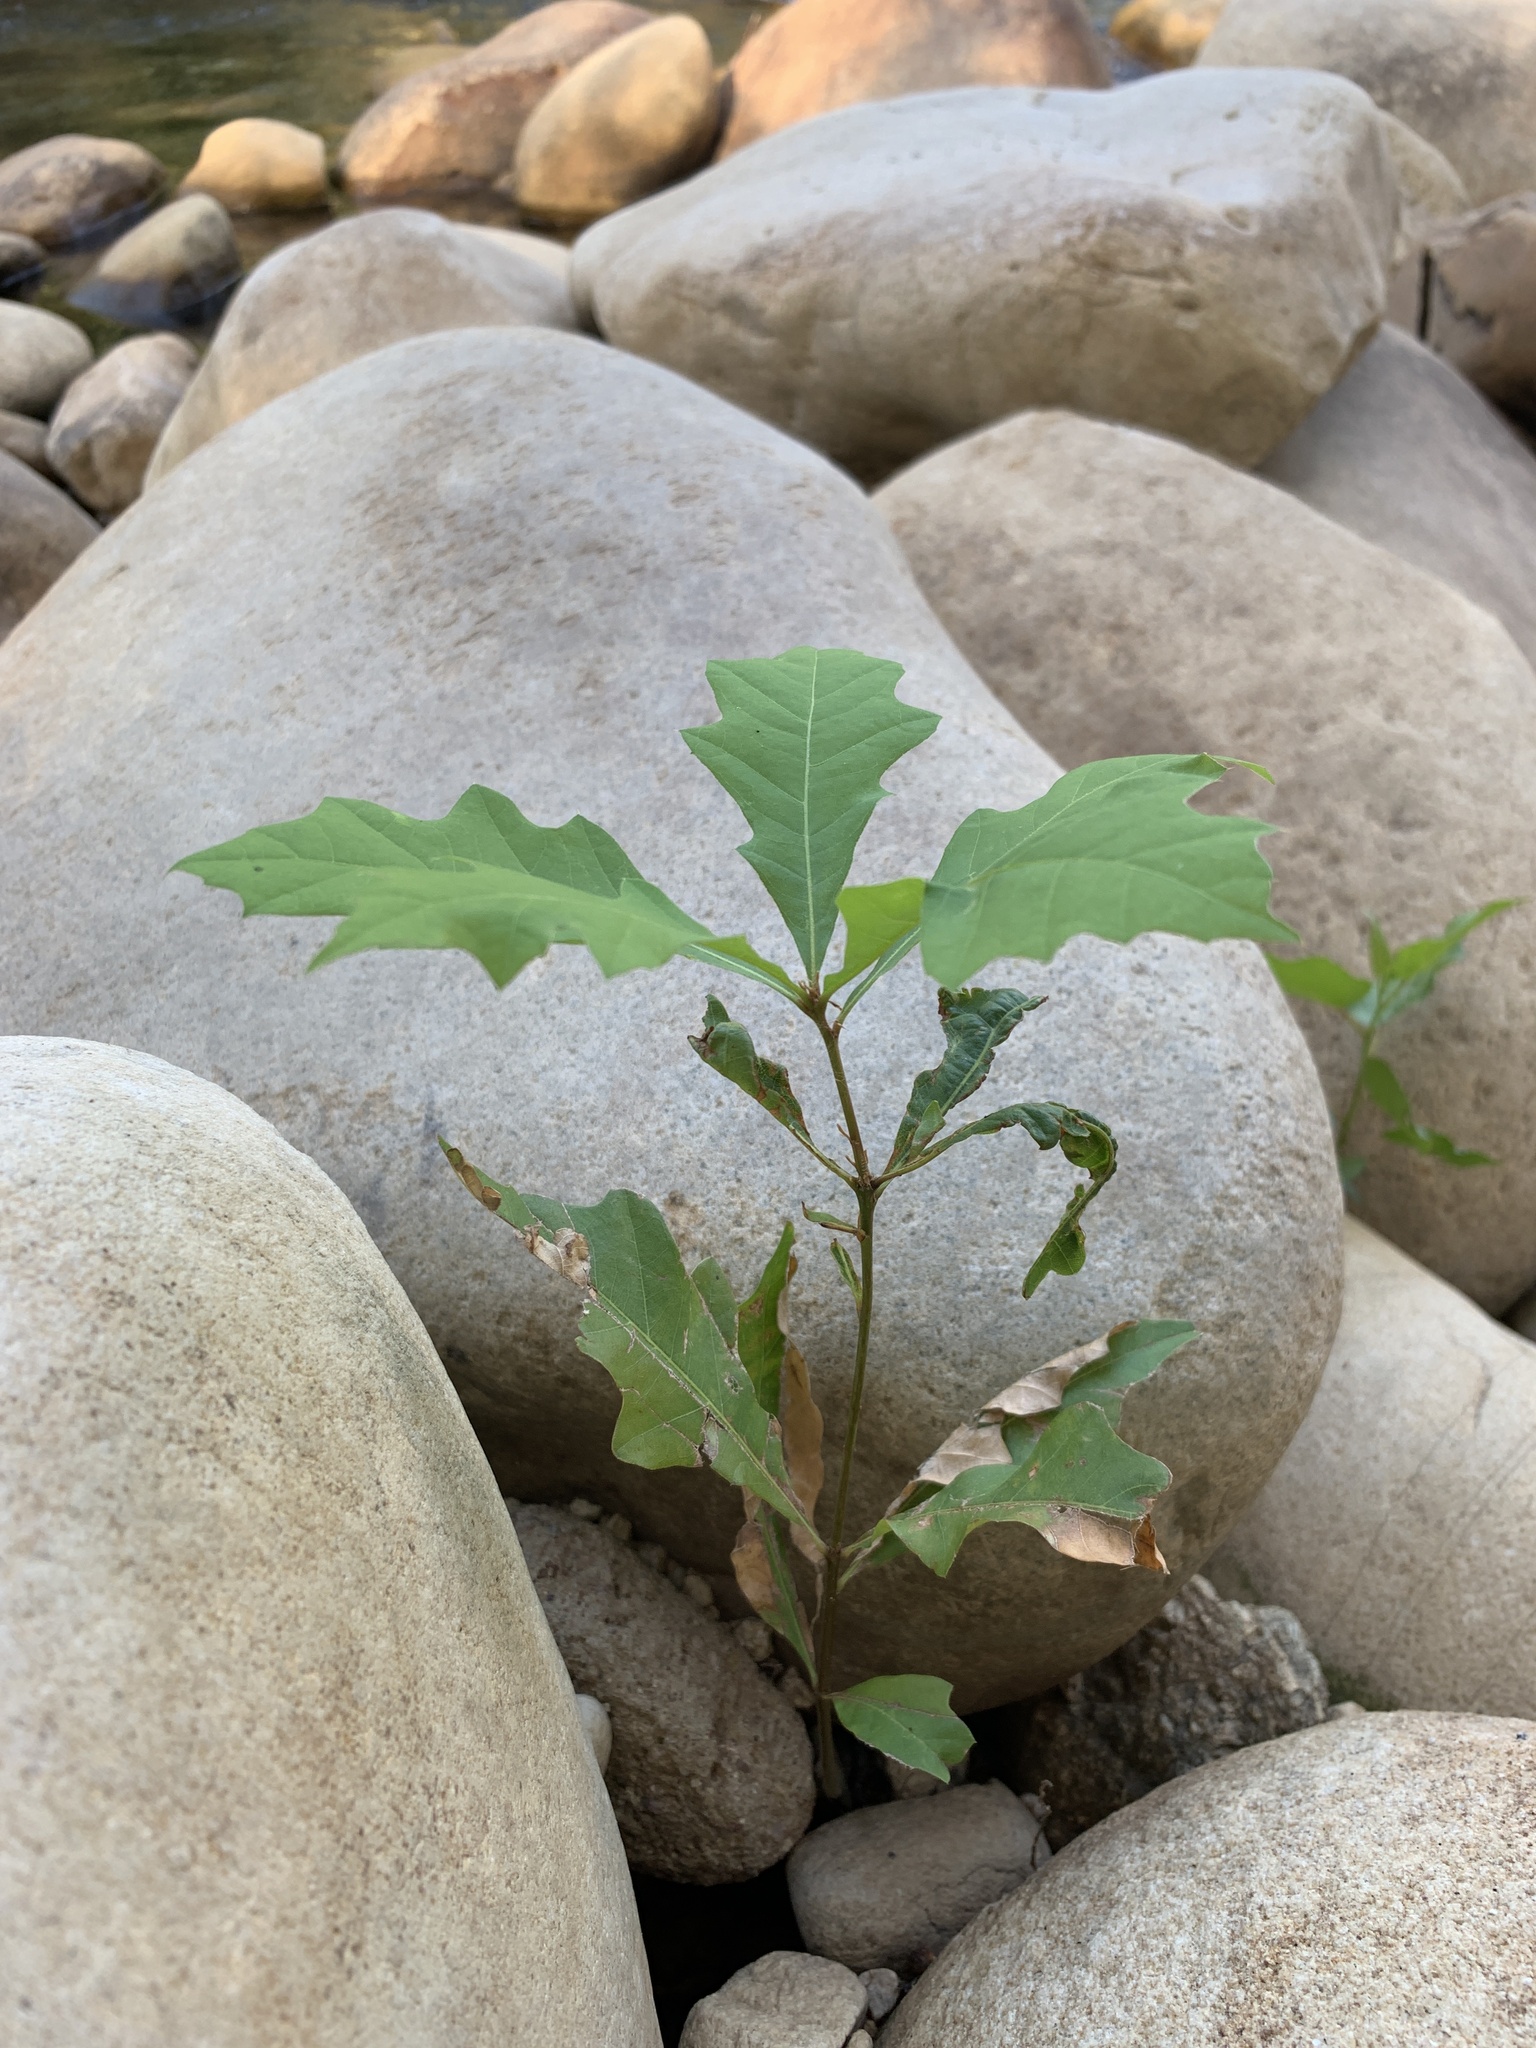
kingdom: Plantae
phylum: Tracheophyta
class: Magnoliopsida
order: Fagales
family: Fagaceae
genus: Quercus
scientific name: Quercus palustris
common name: Pin oak
